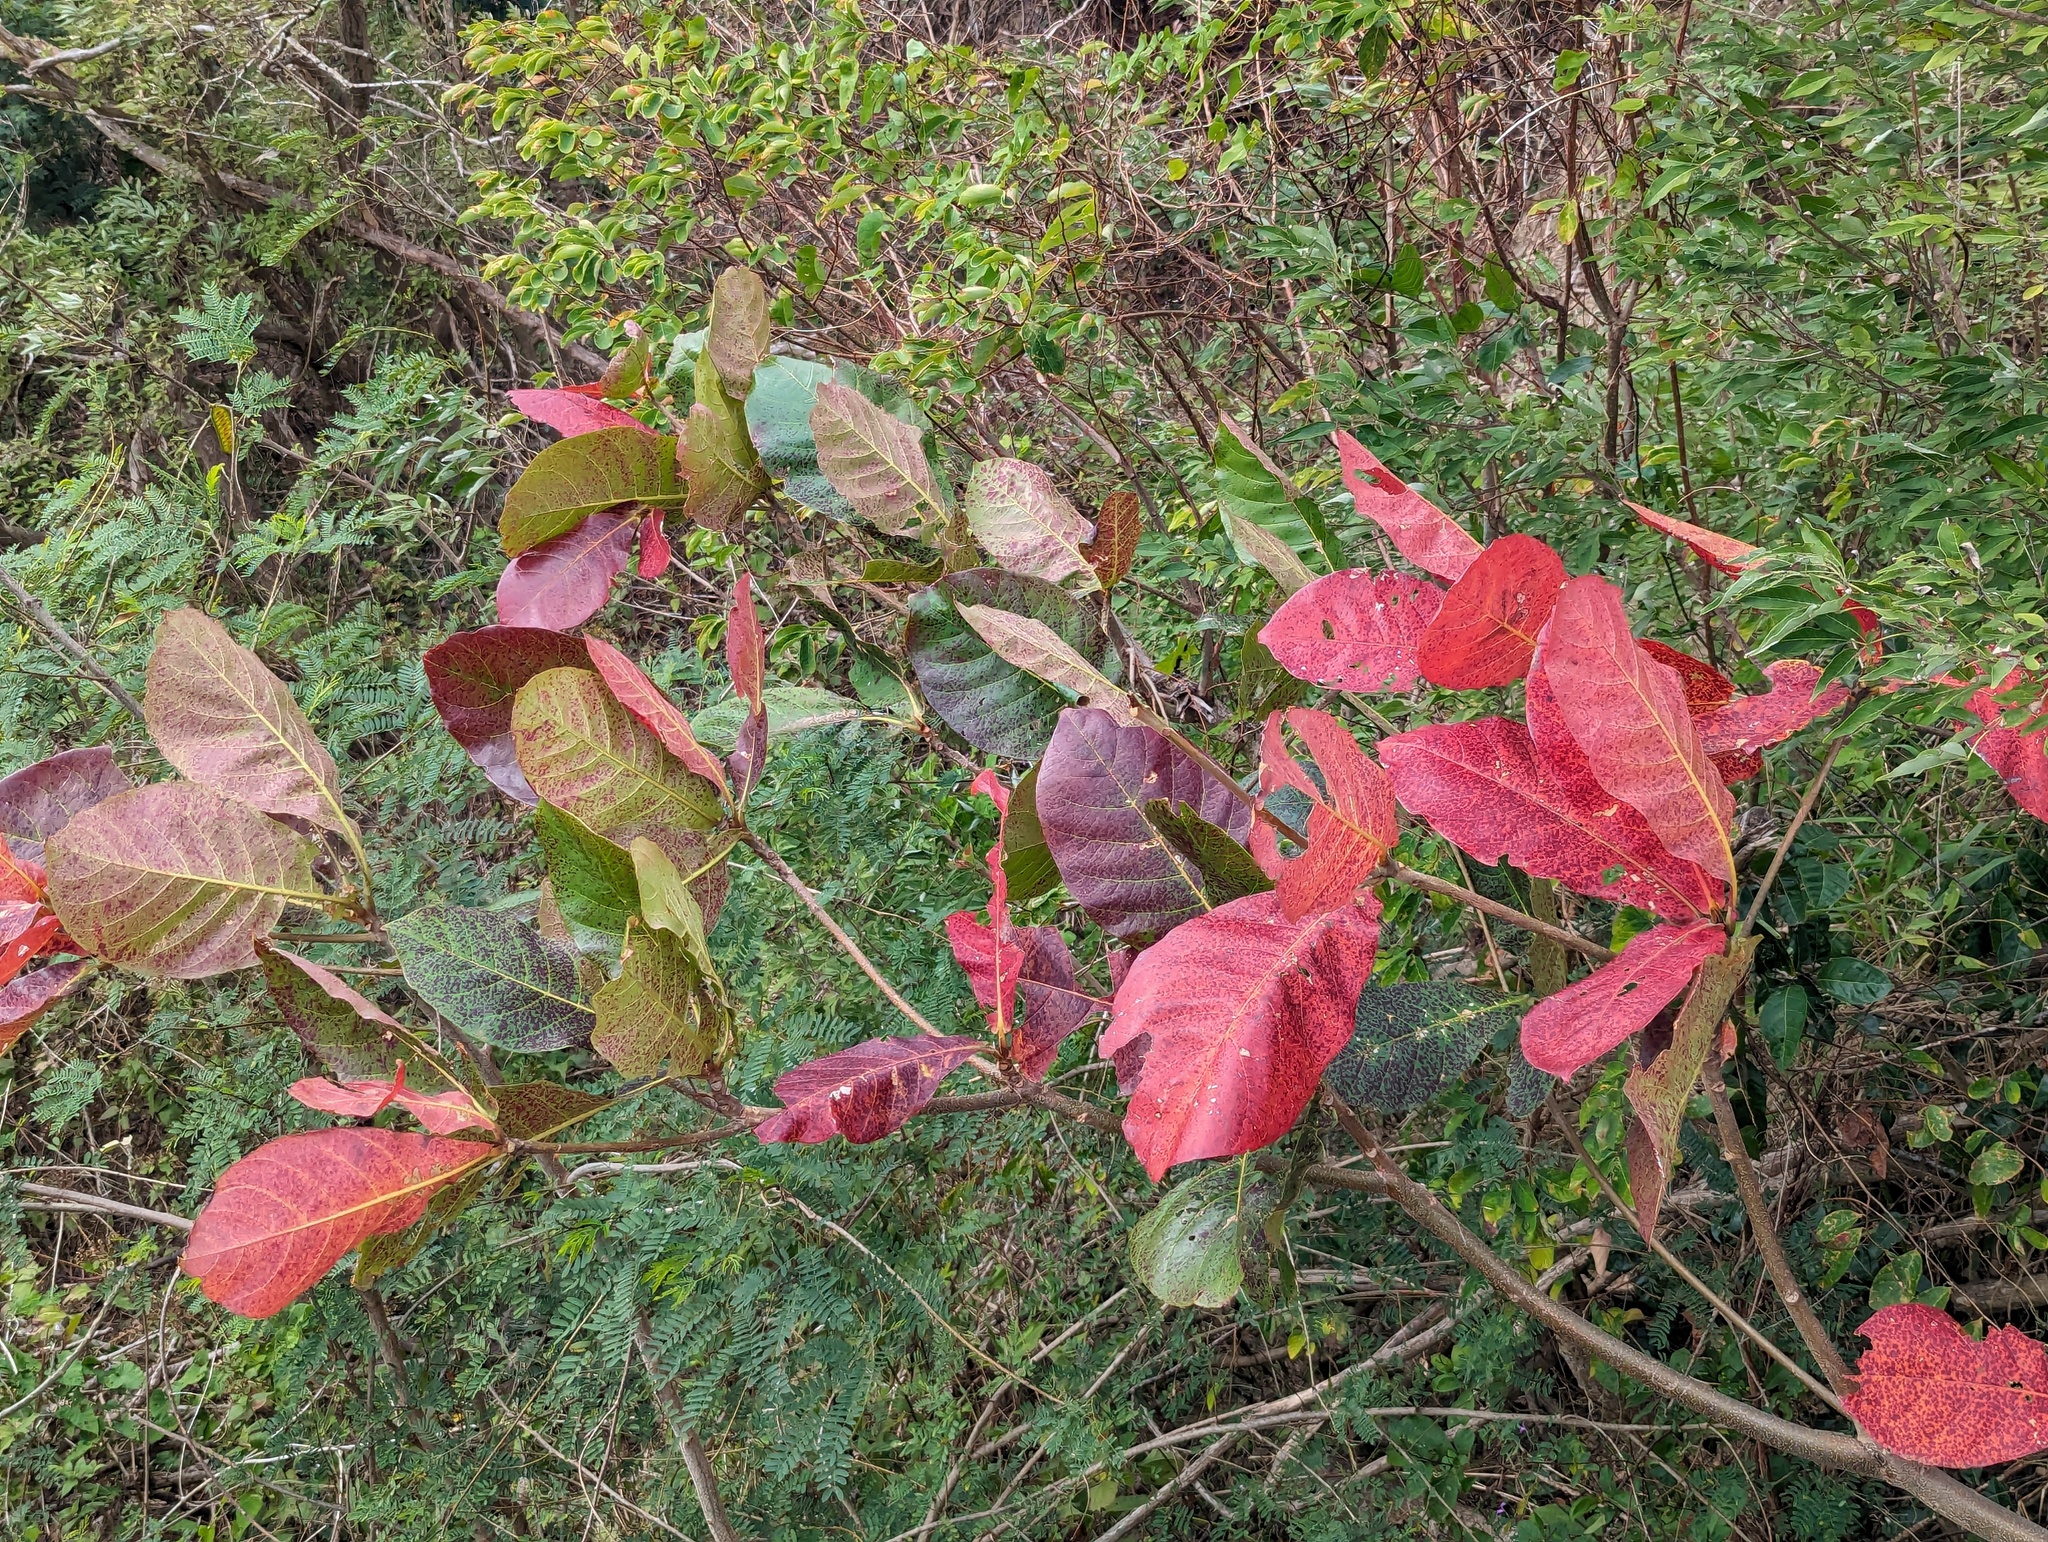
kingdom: Plantae
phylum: Tracheophyta
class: Magnoliopsida
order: Myrtales
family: Combretaceae
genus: Terminalia
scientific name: Terminalia catappa
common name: Tropical almond
